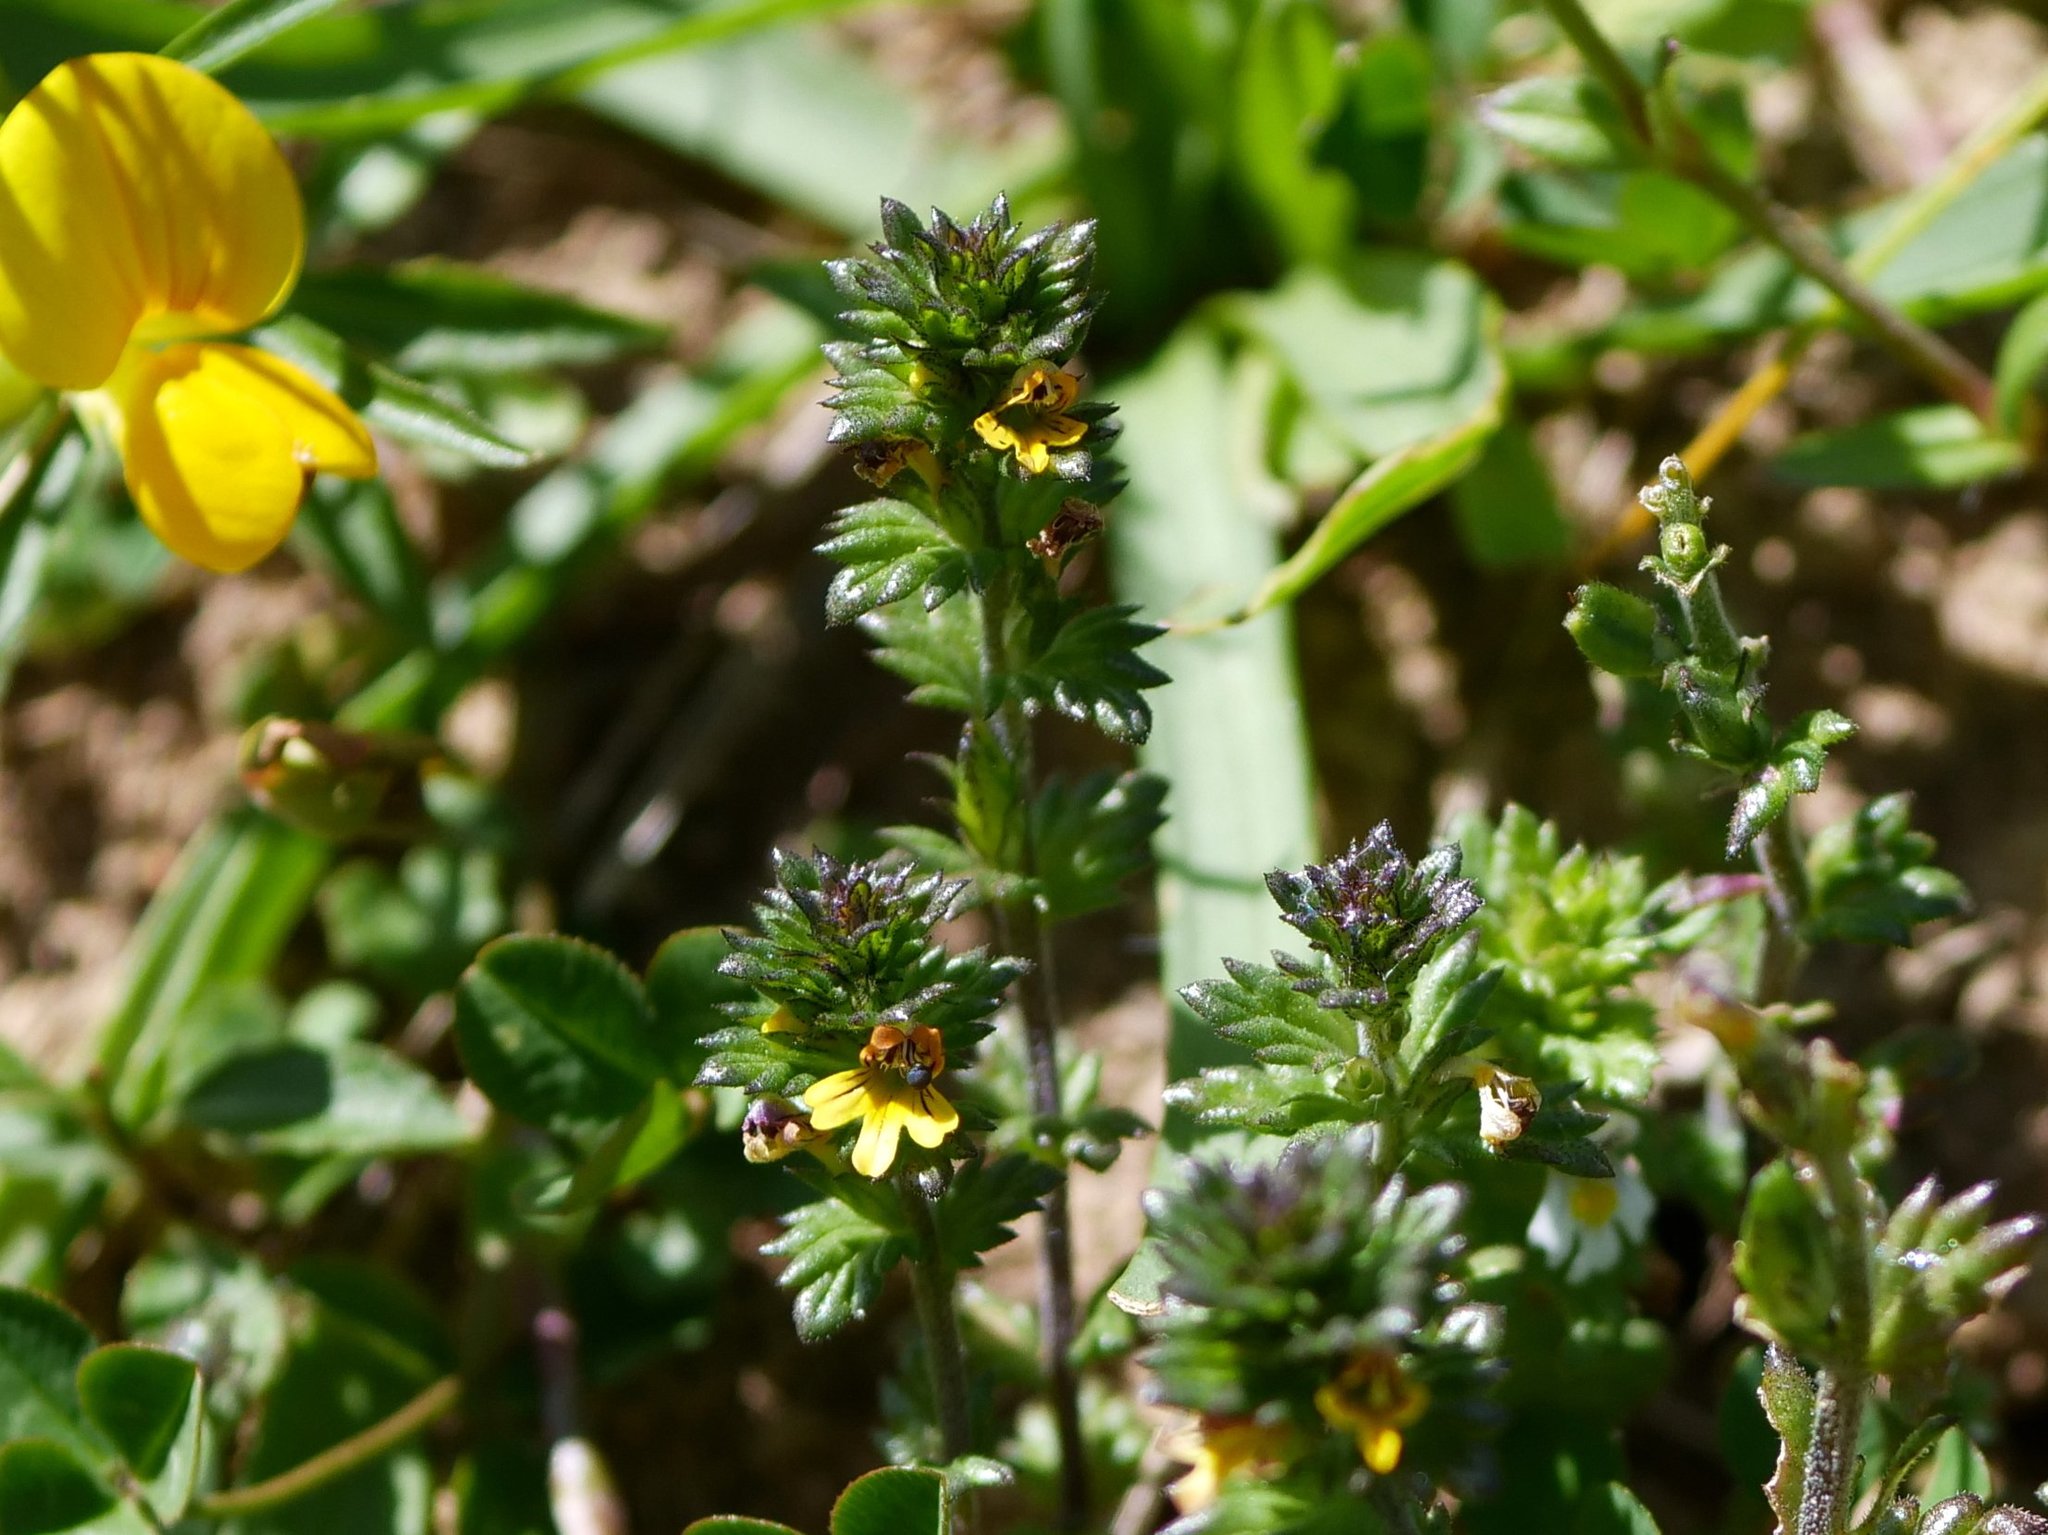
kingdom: Plantae
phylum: Tracheophyta
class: Magnoliopsida
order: Lamiales
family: Orobanchaceae
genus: Euphrasia
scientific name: Euphrasia minima
